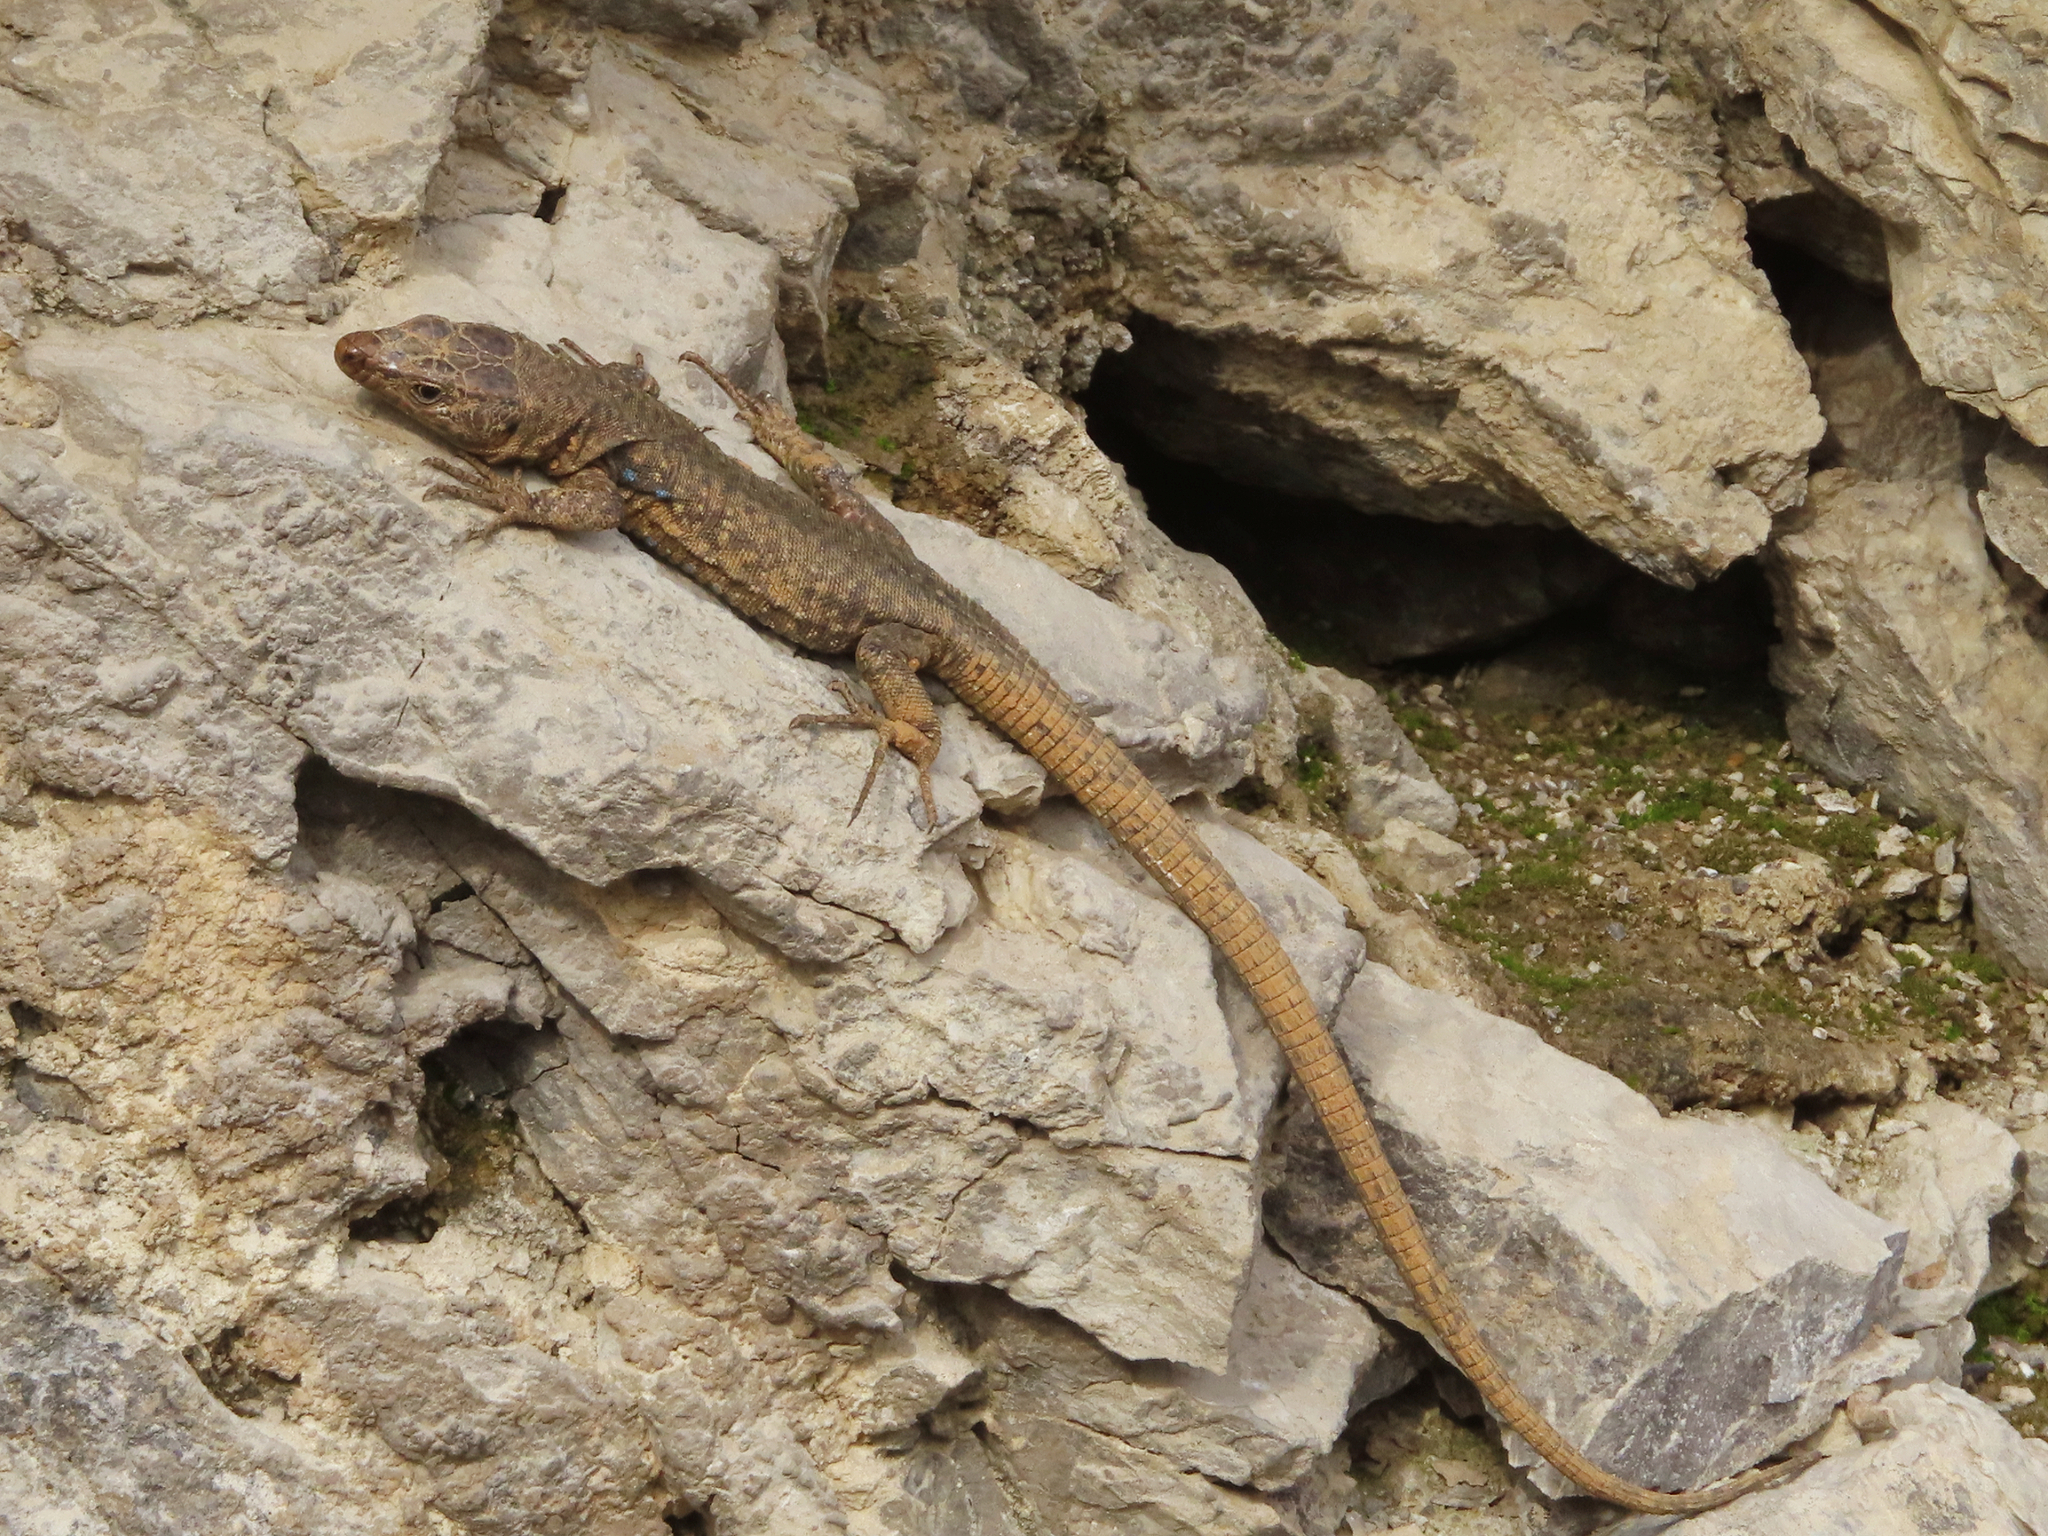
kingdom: Animalia
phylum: Chordata
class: Squamata
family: Lacertidae
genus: Darevskia
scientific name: Darevskia bithynica
